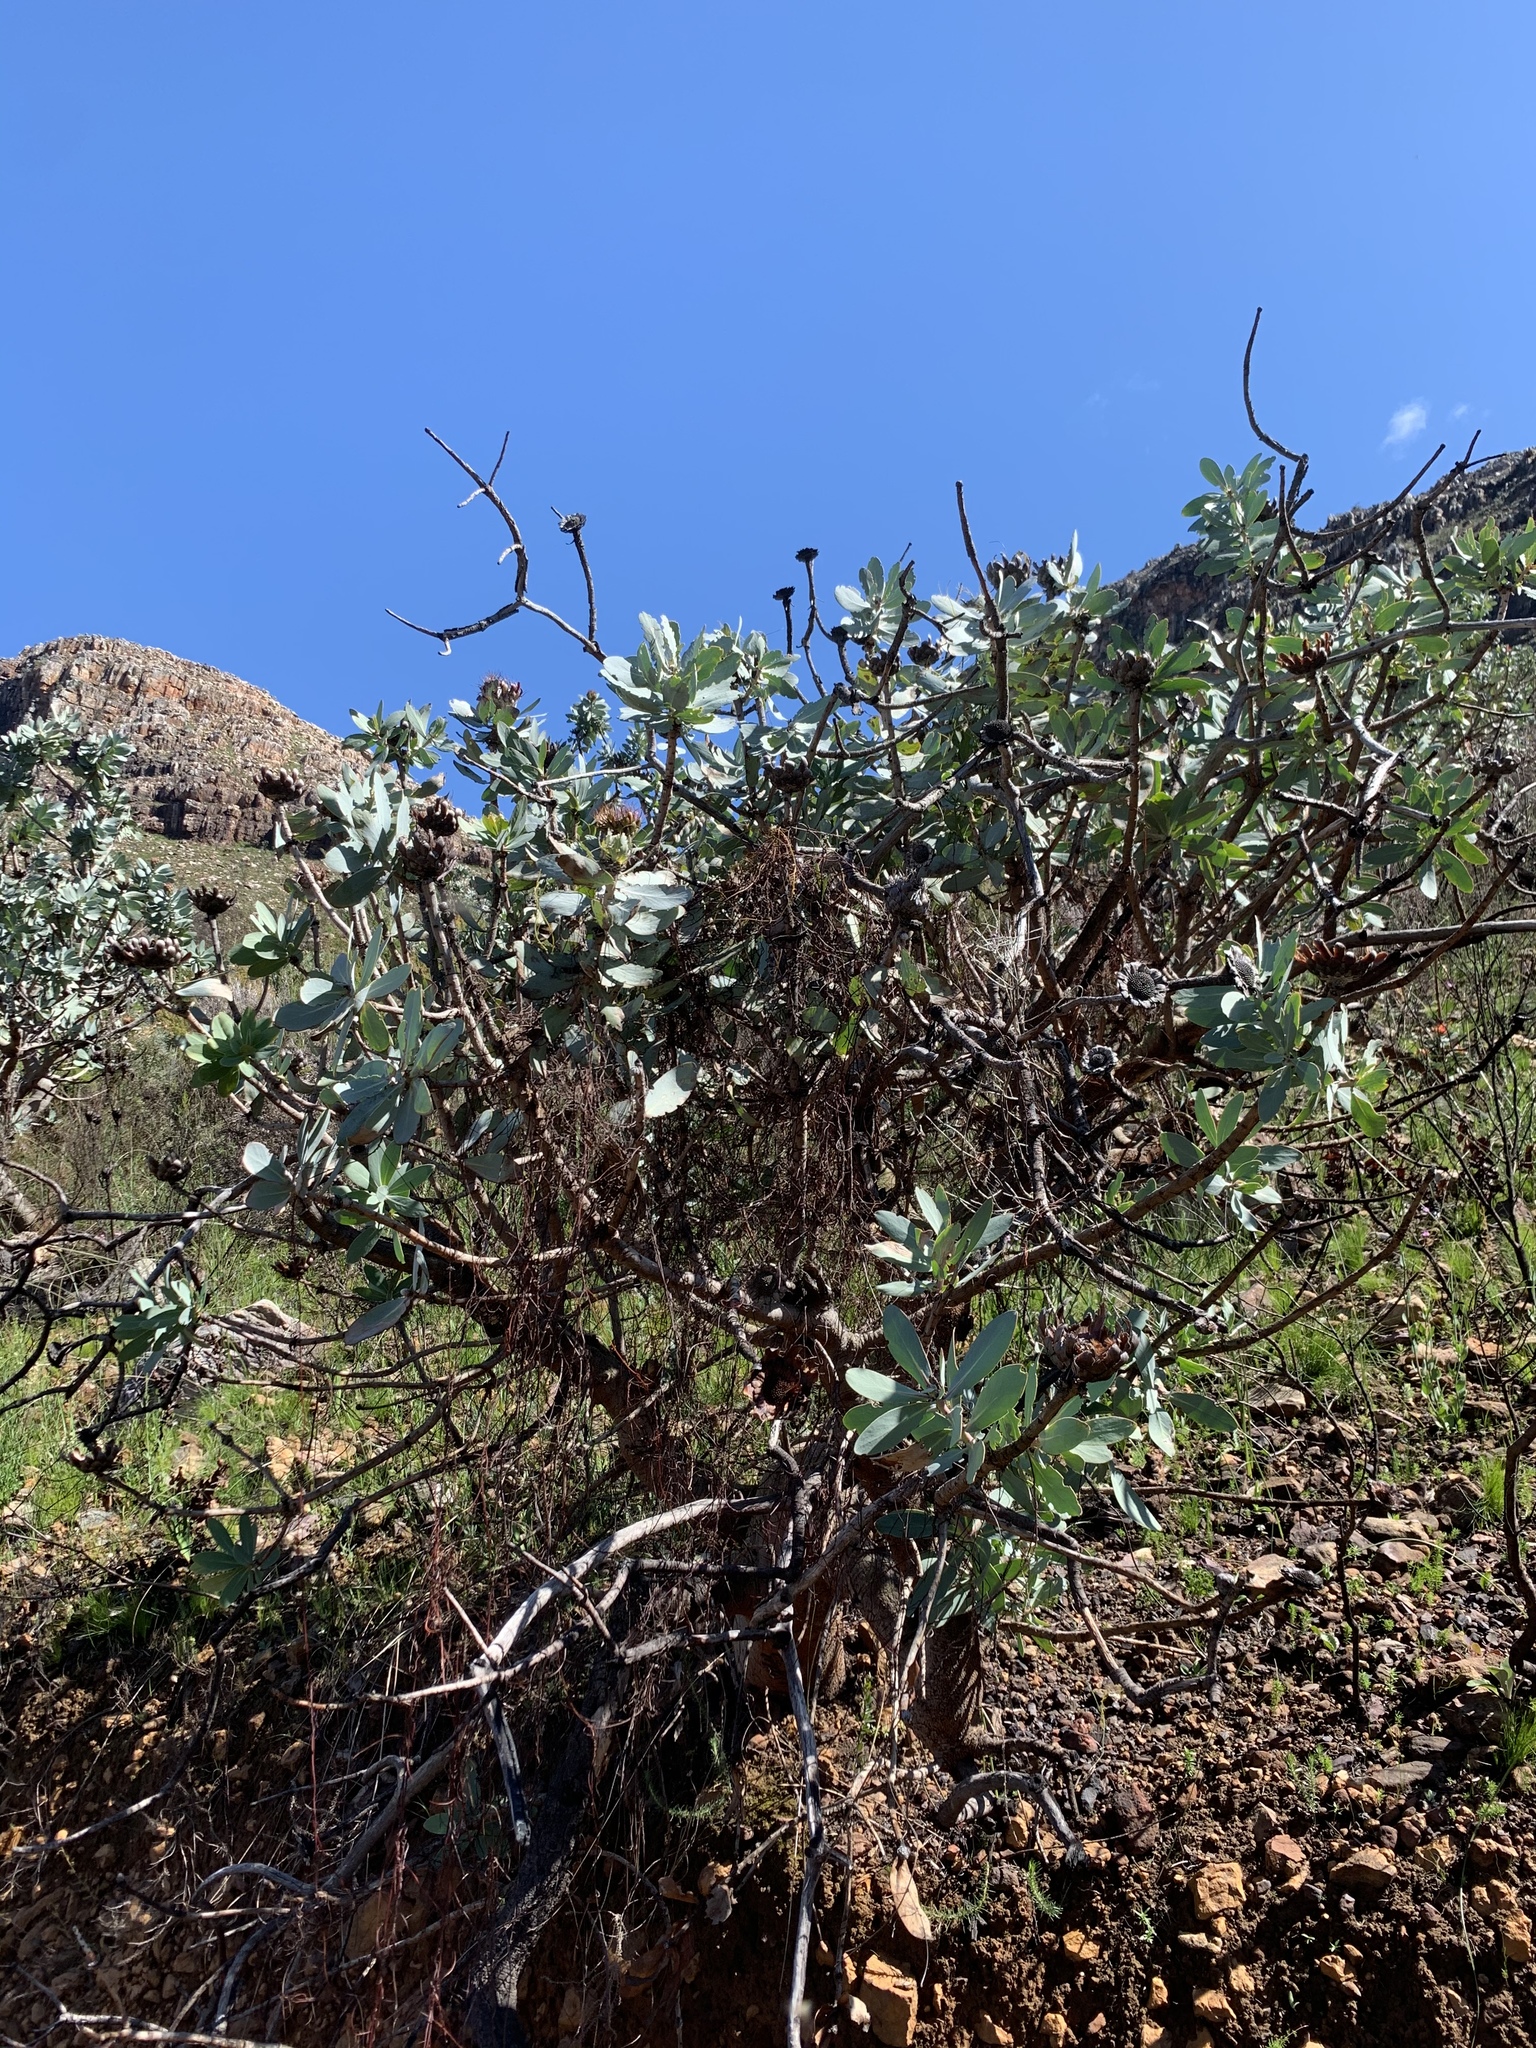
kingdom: Plantae
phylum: Tracheophyta
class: Magnoliopsida
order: Proteales
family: Proteaceae
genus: Protea
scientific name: Protea nitida
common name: Tree protea
